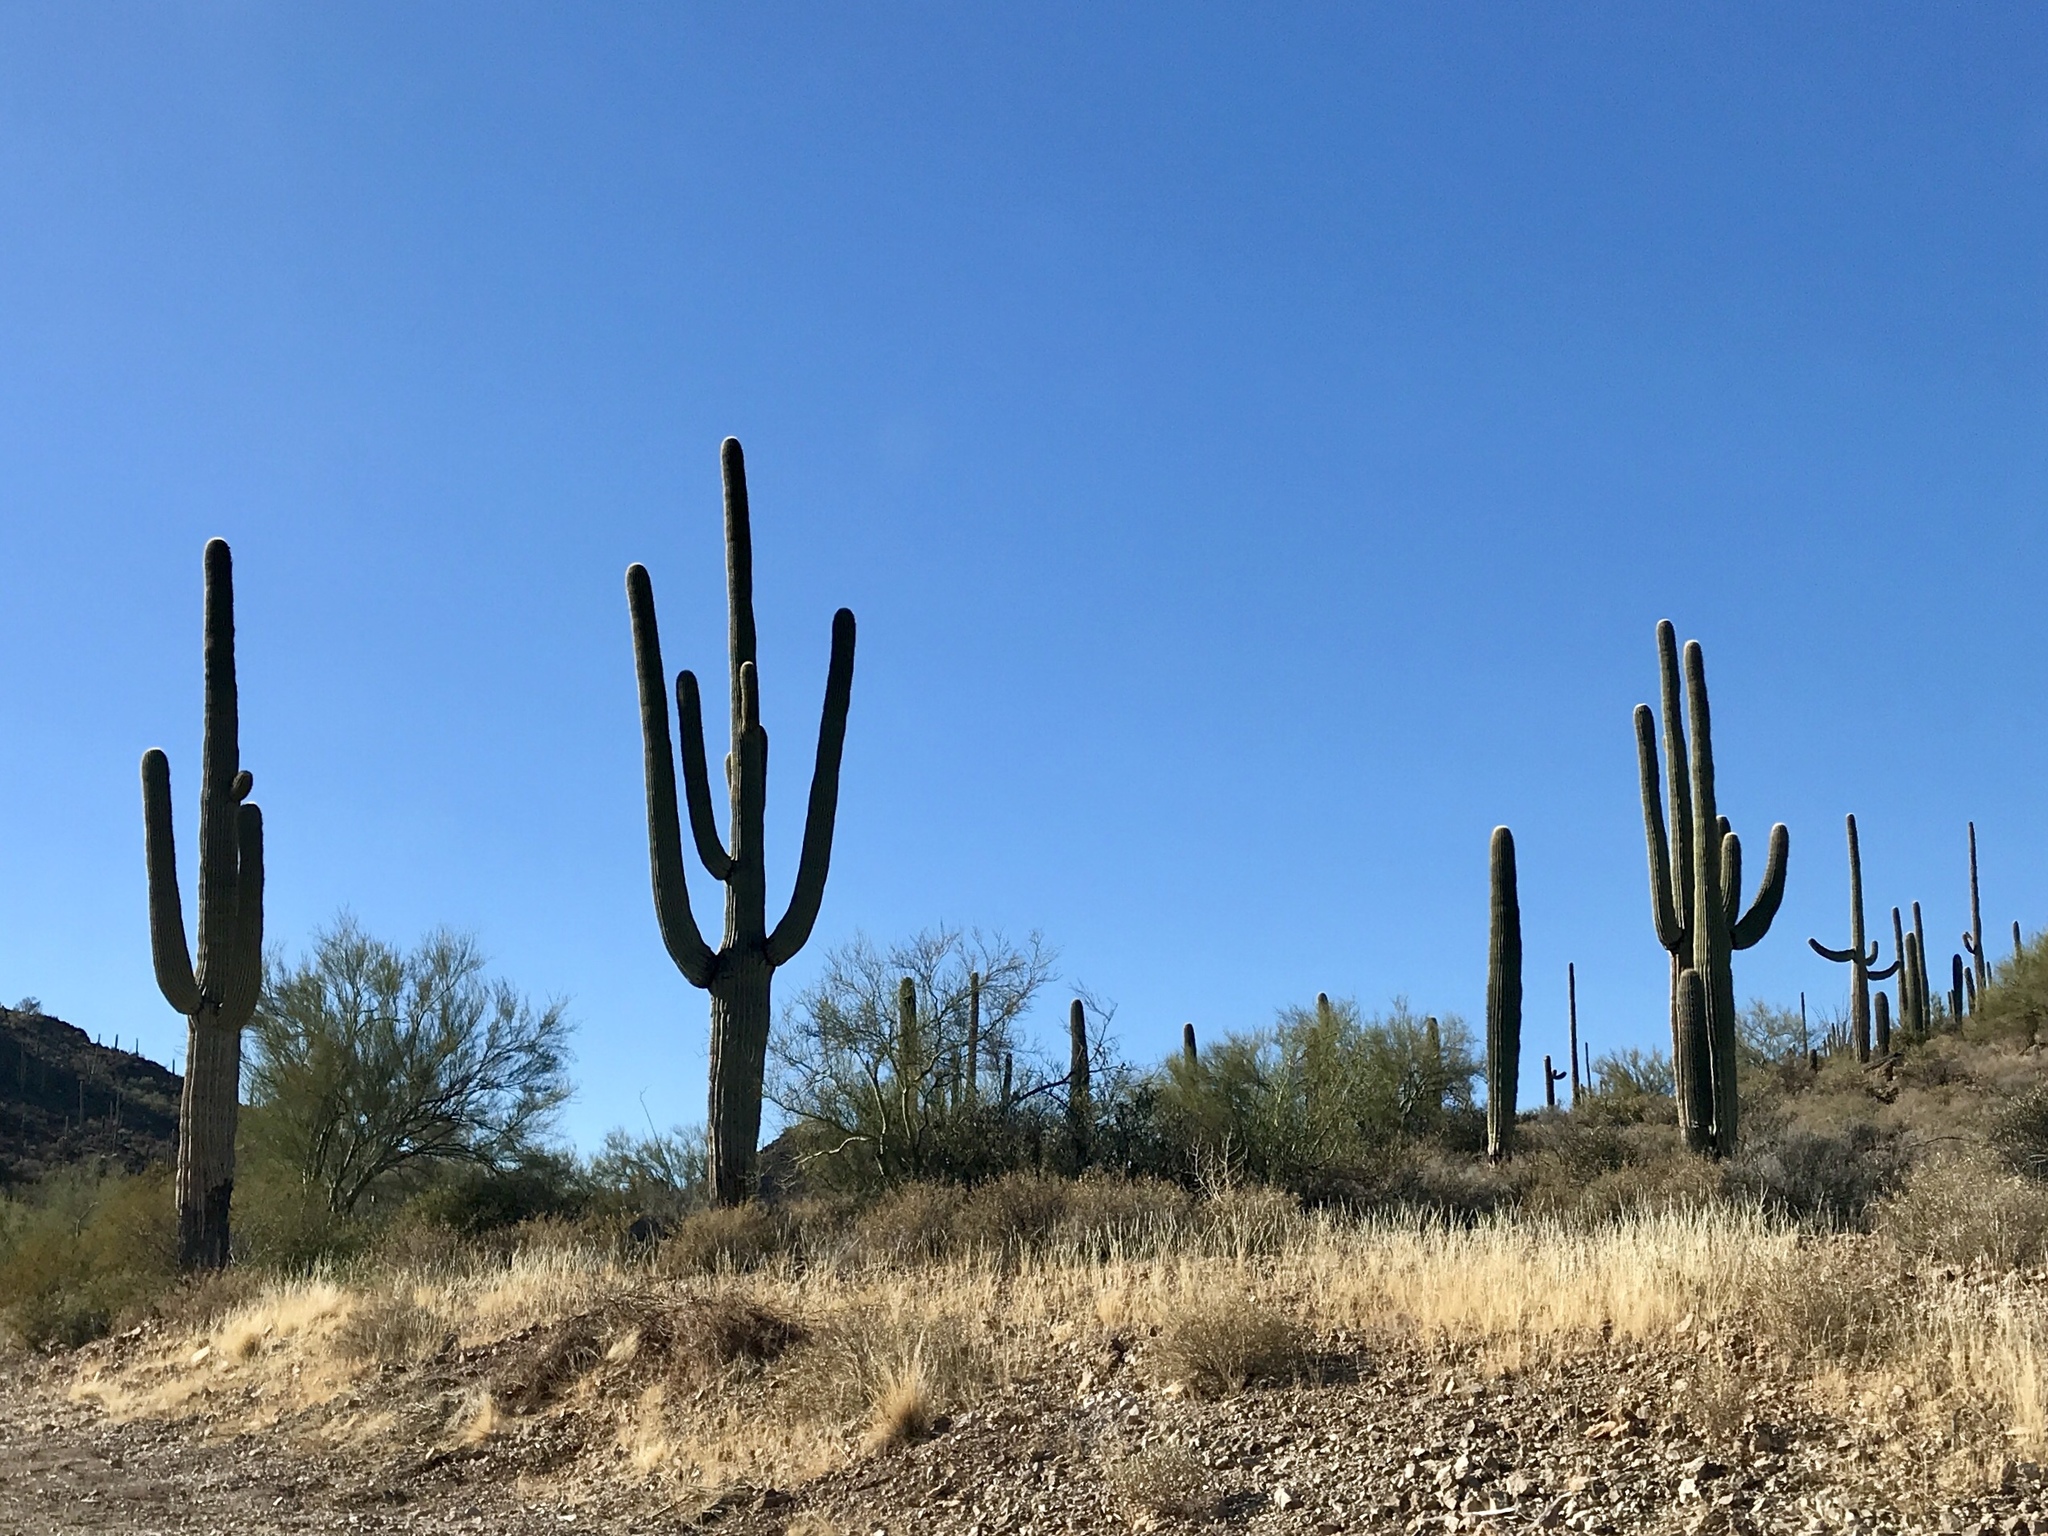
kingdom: Plantae
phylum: Tracheophyta
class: Magnoliopsida
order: Caryophyllales
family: Cactaceae
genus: Carnegiea
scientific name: Carnegiea gigantea
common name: Saguaro
